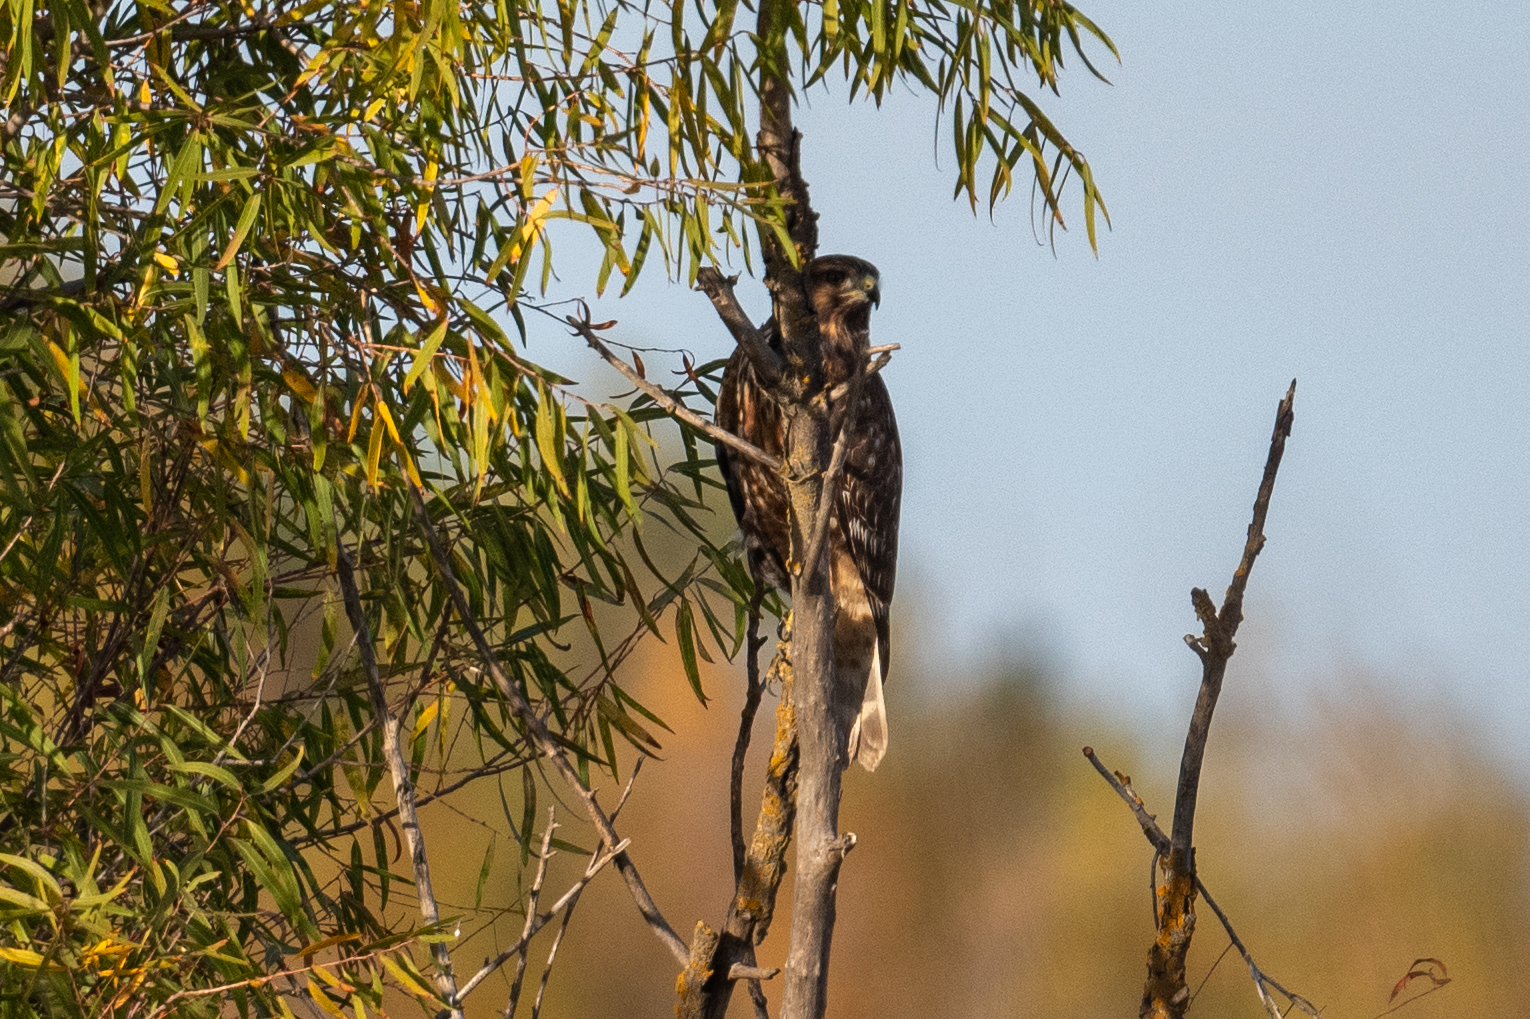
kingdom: Animalia
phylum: Chordata
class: Aves
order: Accipitriformes
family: Accipitridae
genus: Buteo
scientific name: Buteo lineatus
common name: Red-shouldered hawk
